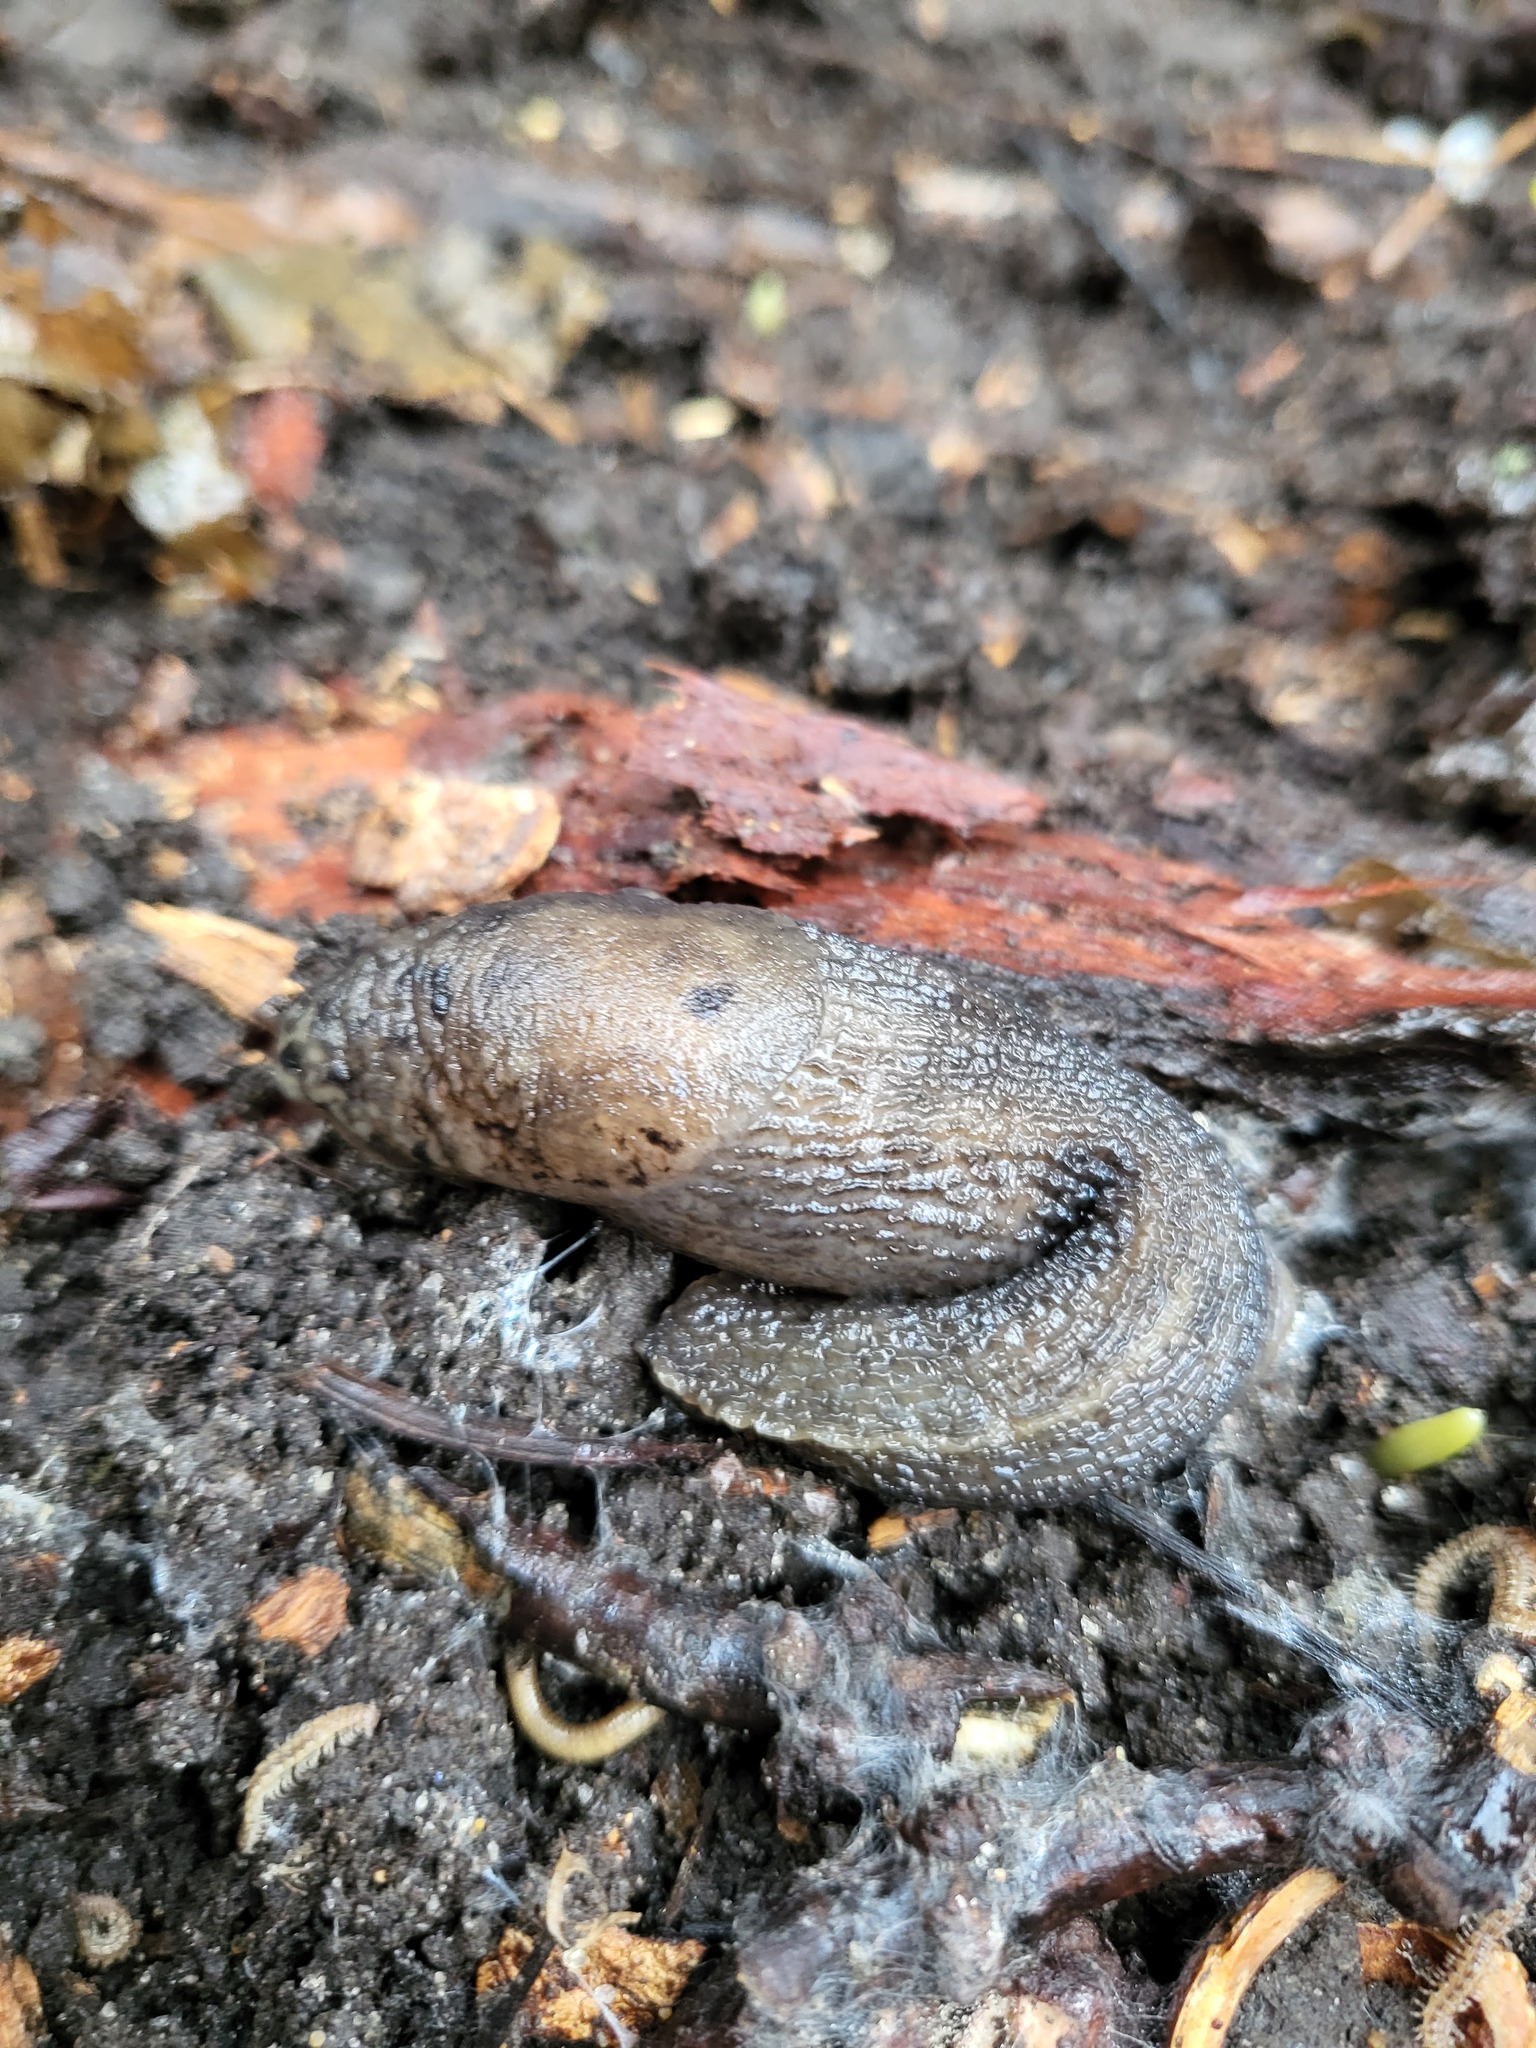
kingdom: Animalia
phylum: Mollusca
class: Gastropoda
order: Stylommatophora
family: Limacidae
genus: Limax
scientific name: Limax maximus
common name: Great grey slug
